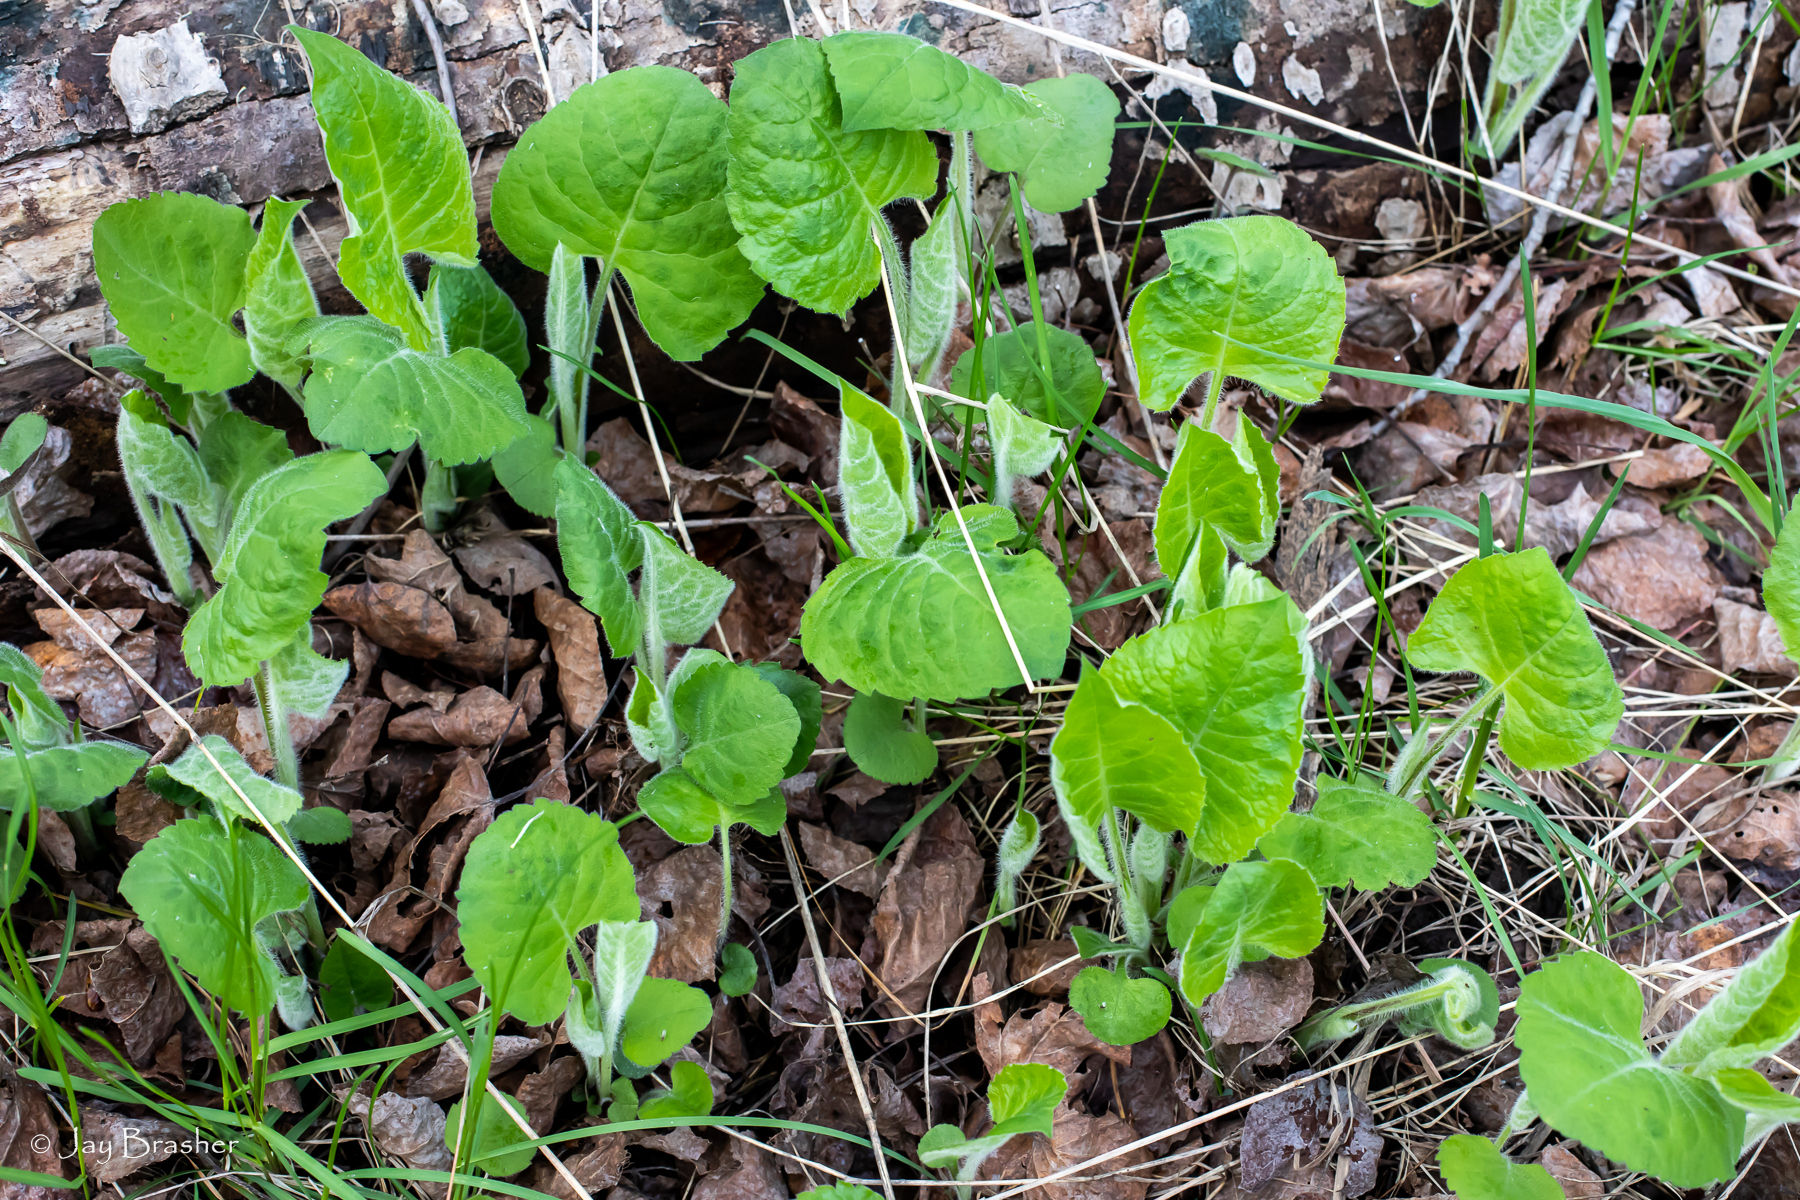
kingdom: Plantae
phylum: Tracheophyta
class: Magnoliopsida
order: Asterales
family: Asteraceae
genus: Eurybia
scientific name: Eurybia macrophylla
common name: Big-leaved aster
